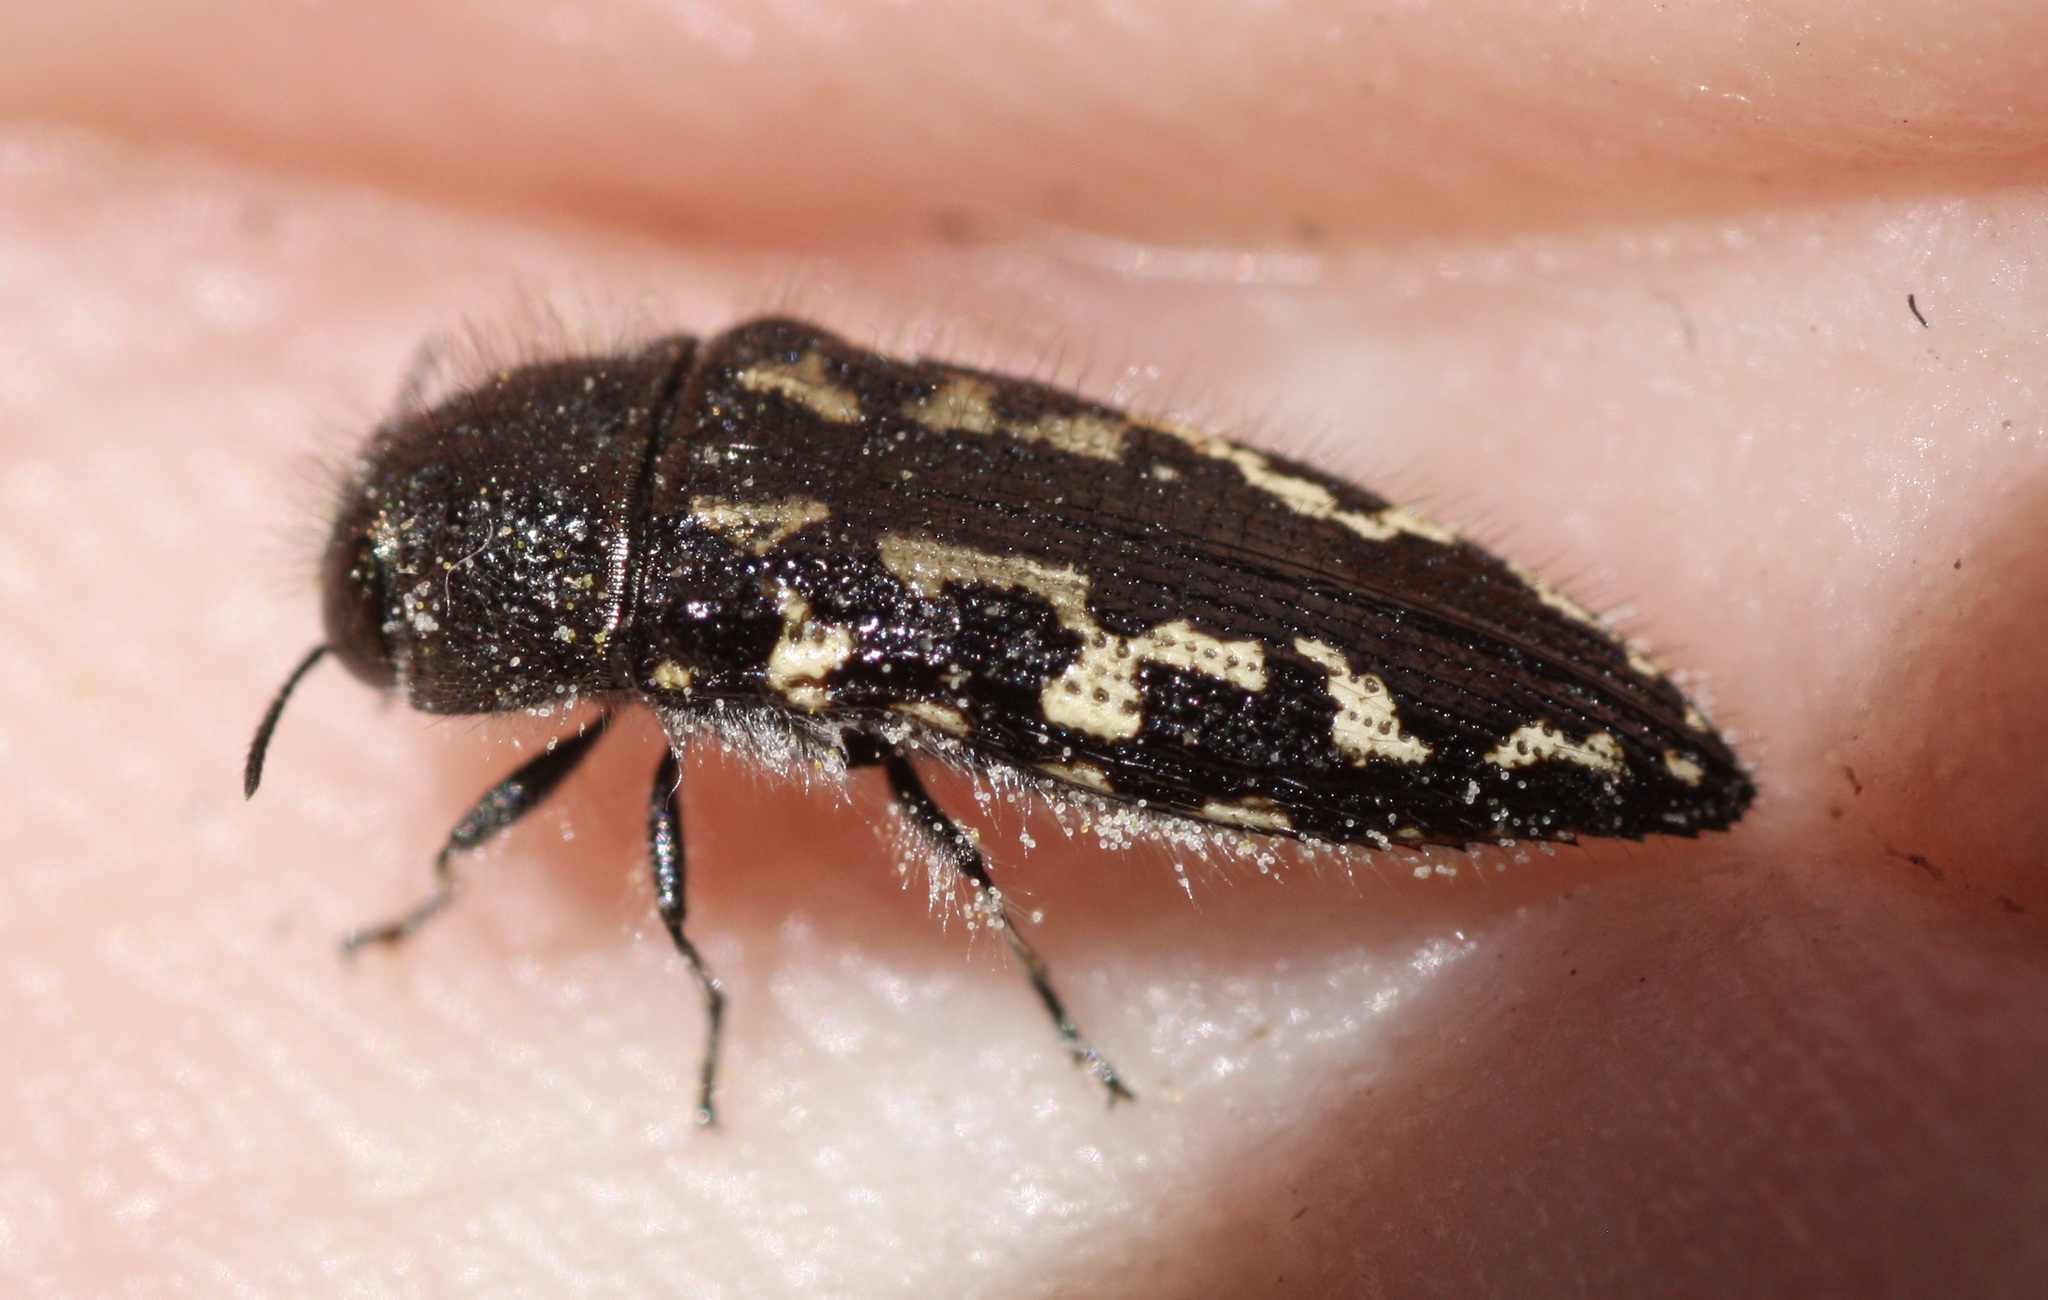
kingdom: Animalia
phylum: Arthropoda
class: Insecta
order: Coleoptera
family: Buprestidae
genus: Acmaeodera
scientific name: Acmaeodera cuneata
